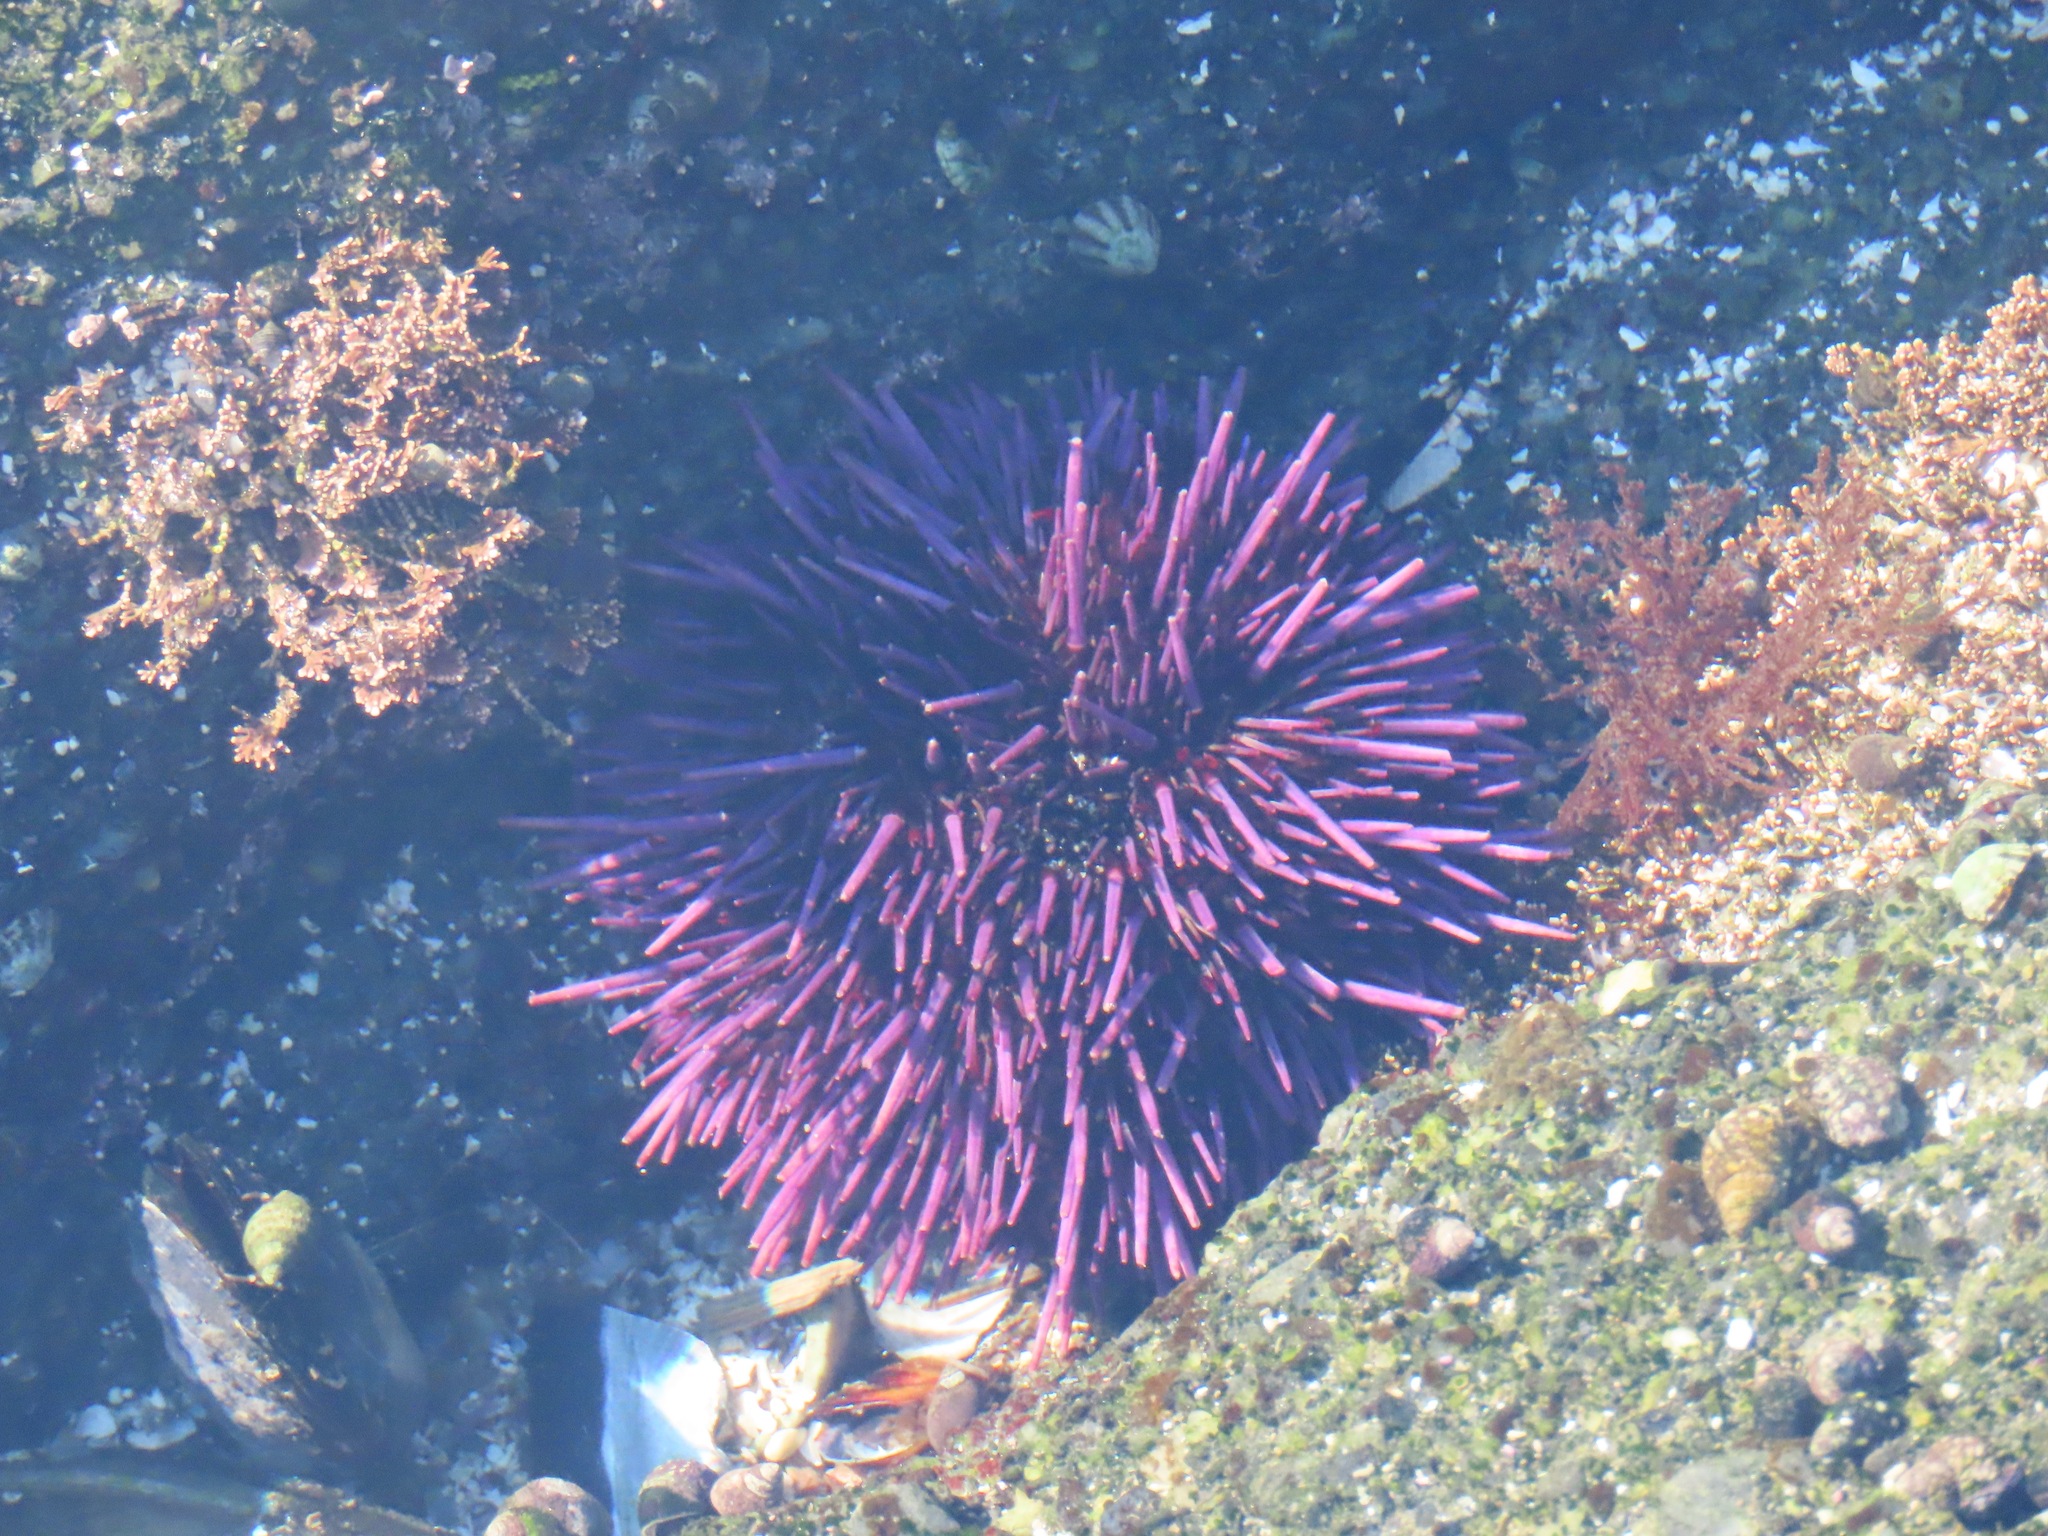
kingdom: Animalia
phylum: Echinodermata
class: Echinoidea
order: Camarodonta
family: Strongylocentrotidae
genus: Strongylocentrotus
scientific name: Strongylocentrotus purpuratus
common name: Purple sea urchin
